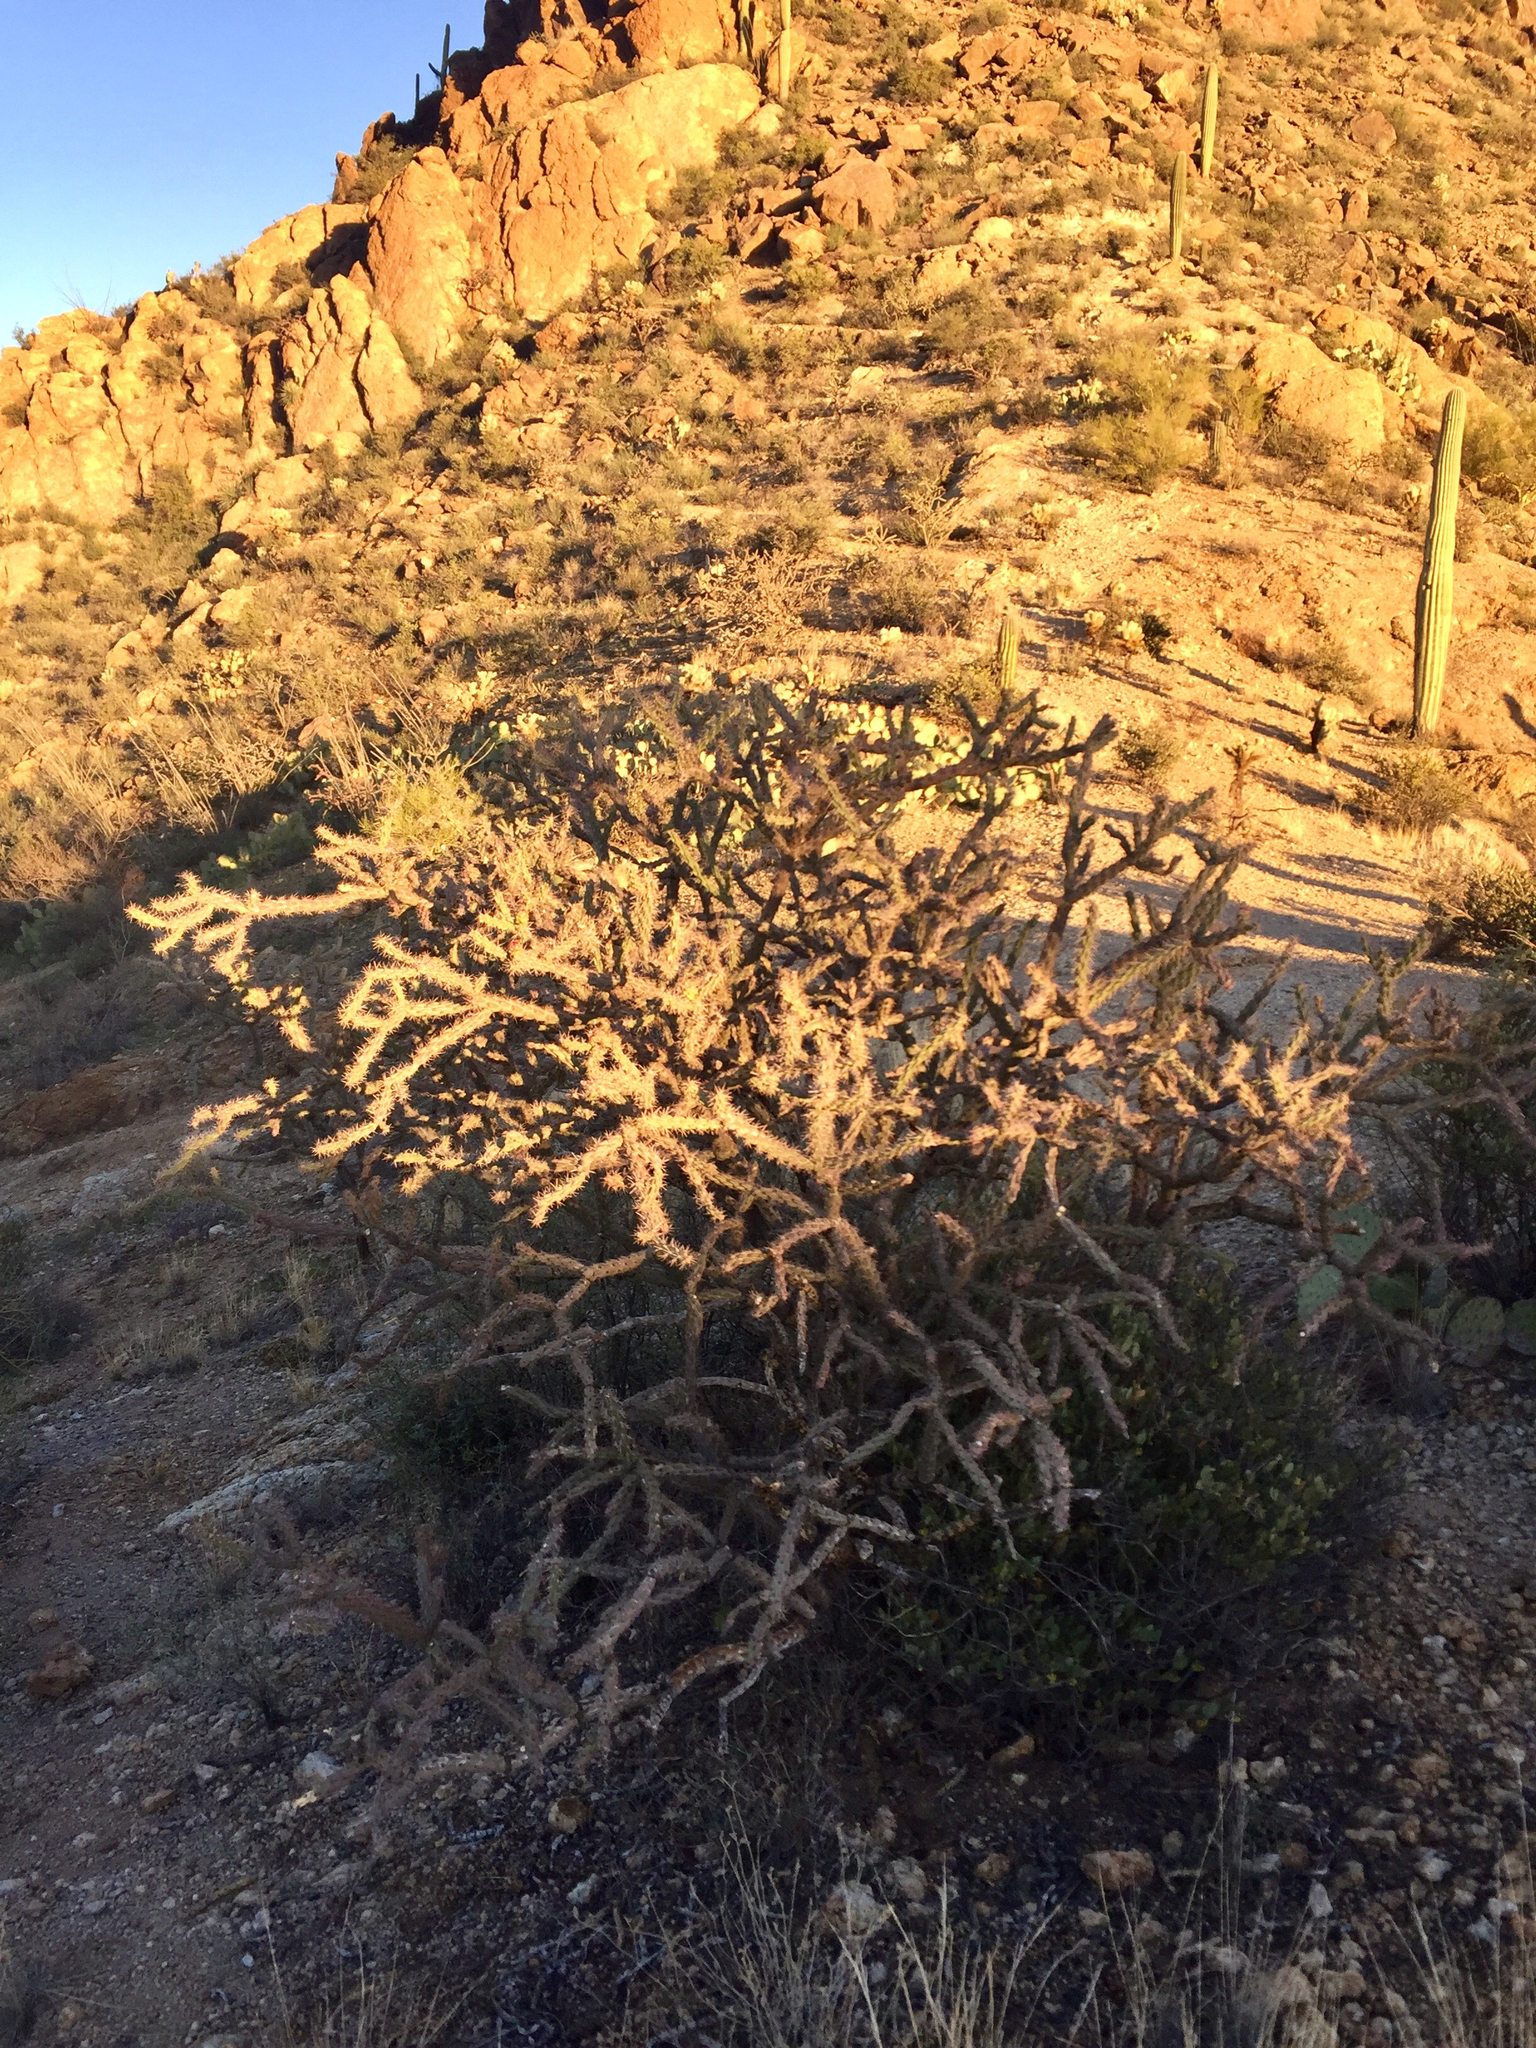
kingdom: Plantae
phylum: Tracheophyta
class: Magnoliopsida
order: Caryophyllales
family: Cactaceae
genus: Cylindropuntia
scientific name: Cylindropuntia thurberi
